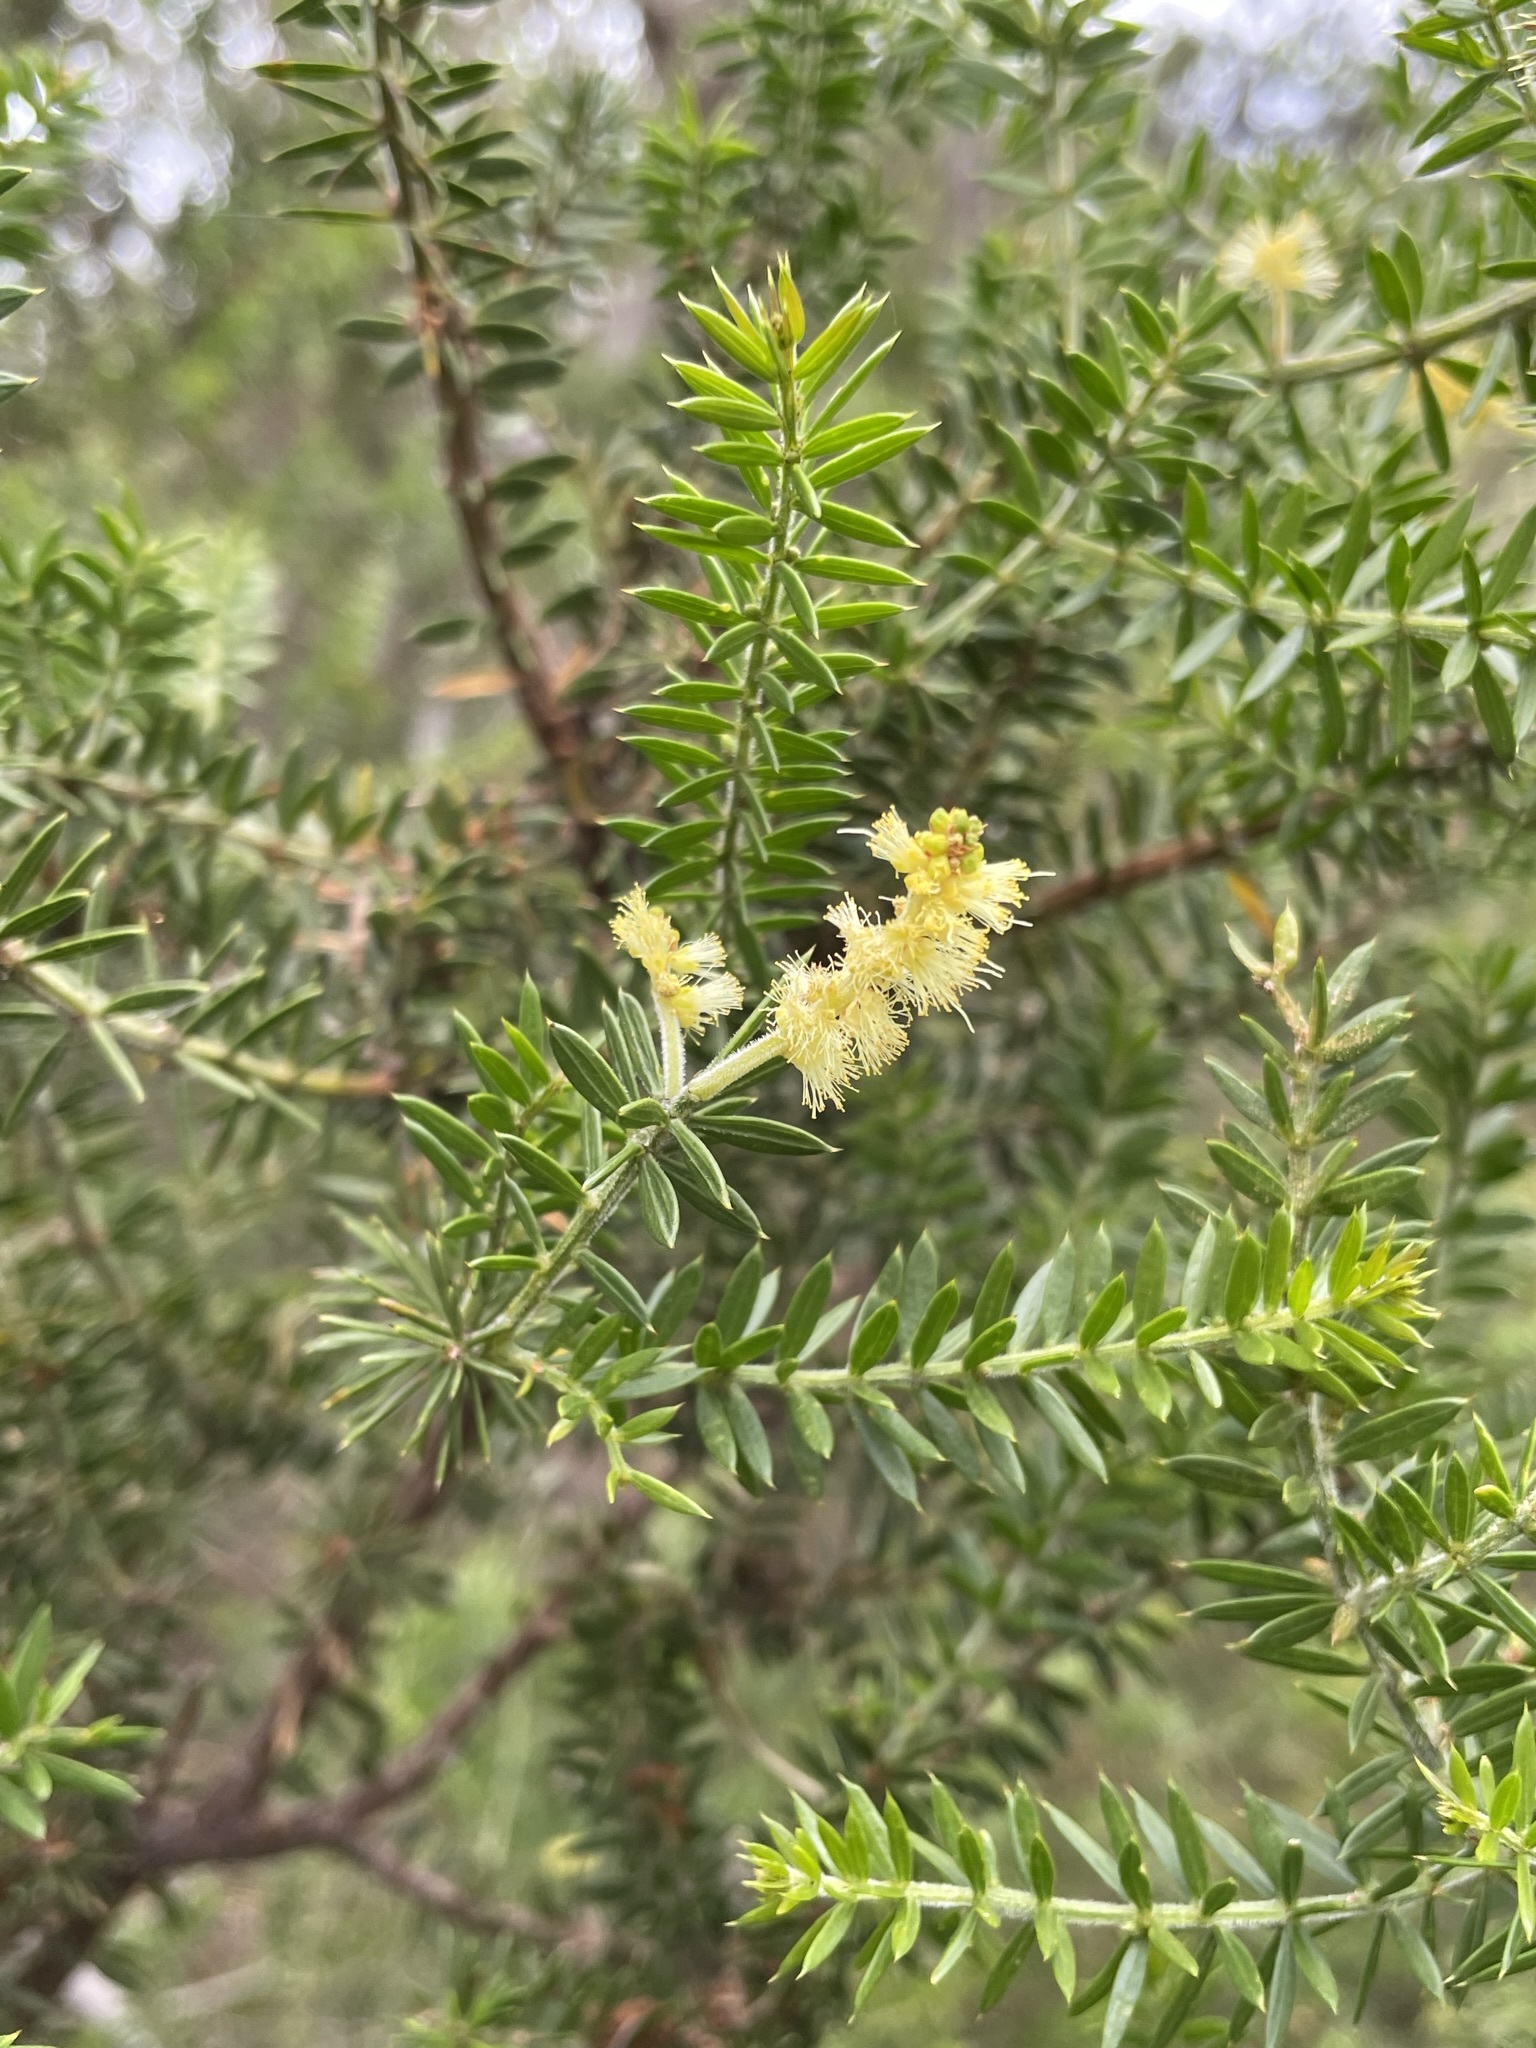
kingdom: Plantae
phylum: Tracheophyta
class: Magnoliopsida
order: Fabales
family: Fabaceae
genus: Acacia
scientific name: Acacia verticillata
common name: Prickly moses
